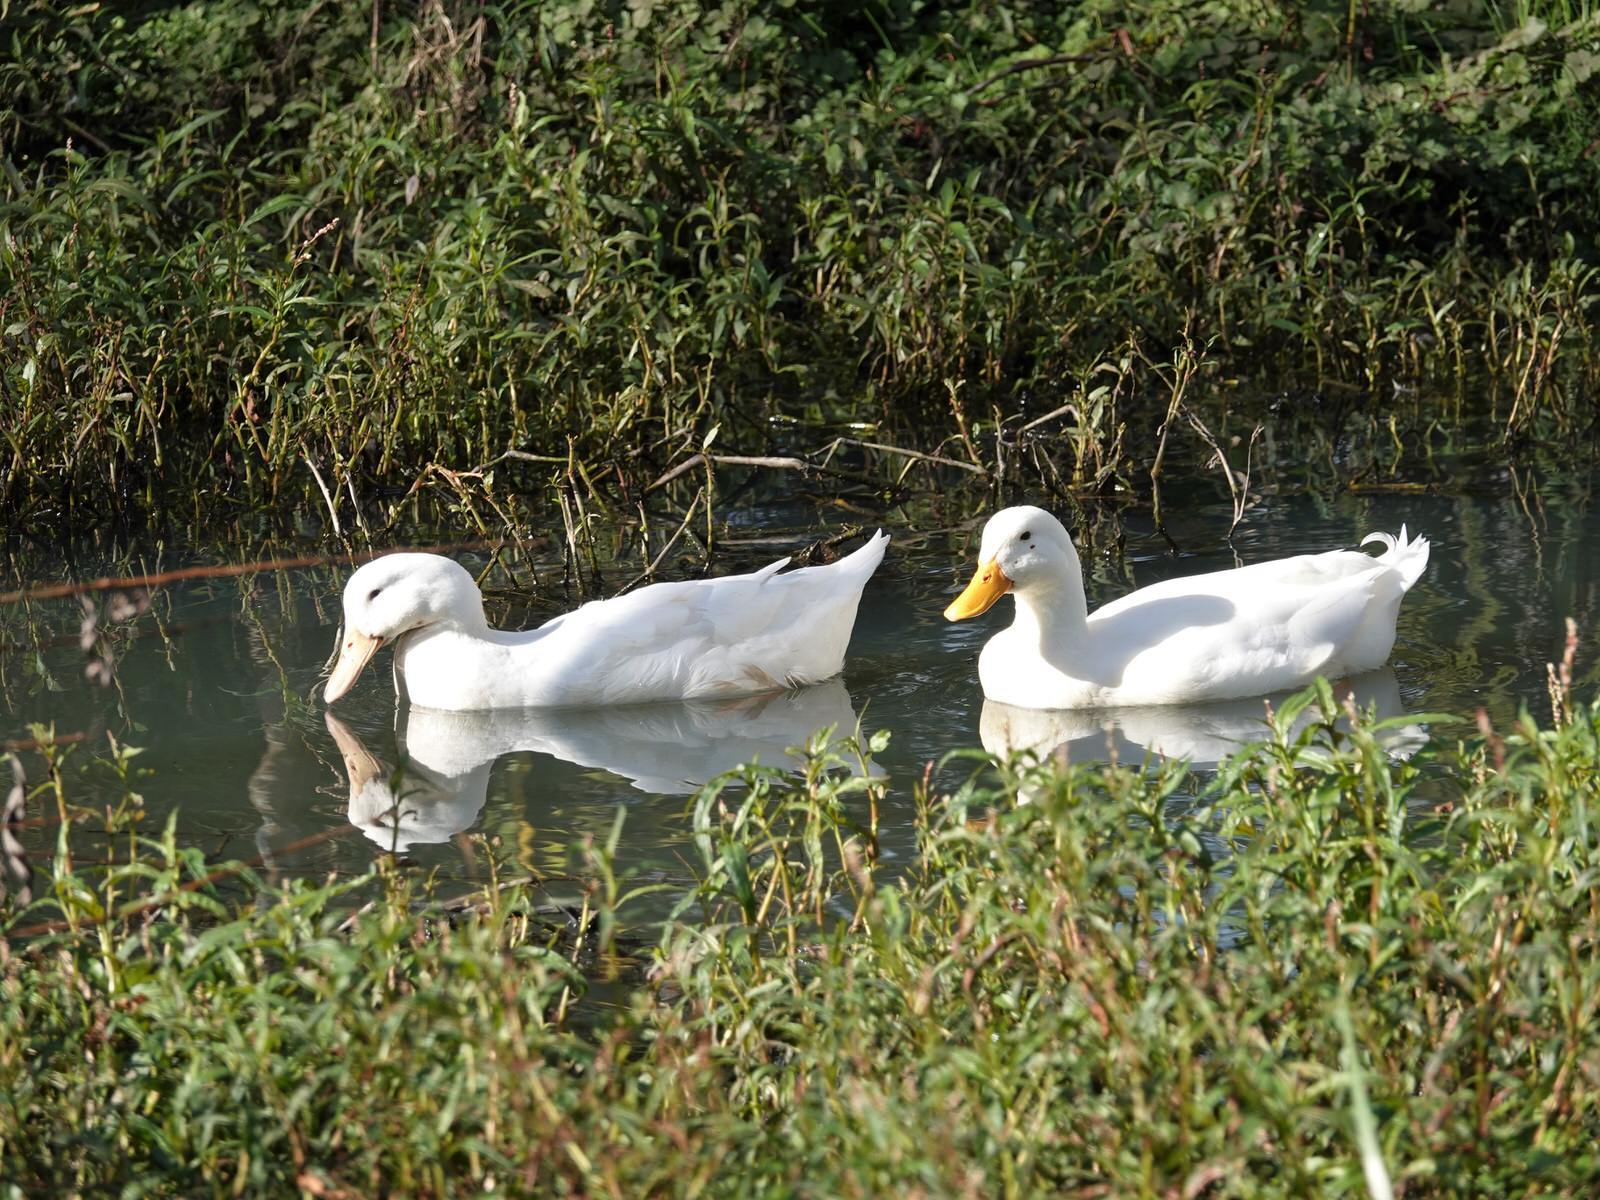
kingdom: Animalia
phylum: Chordata
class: Aves
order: Anseriformes
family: Anatidae
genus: Anas
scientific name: Anas platyrhynchos
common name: Mallard
